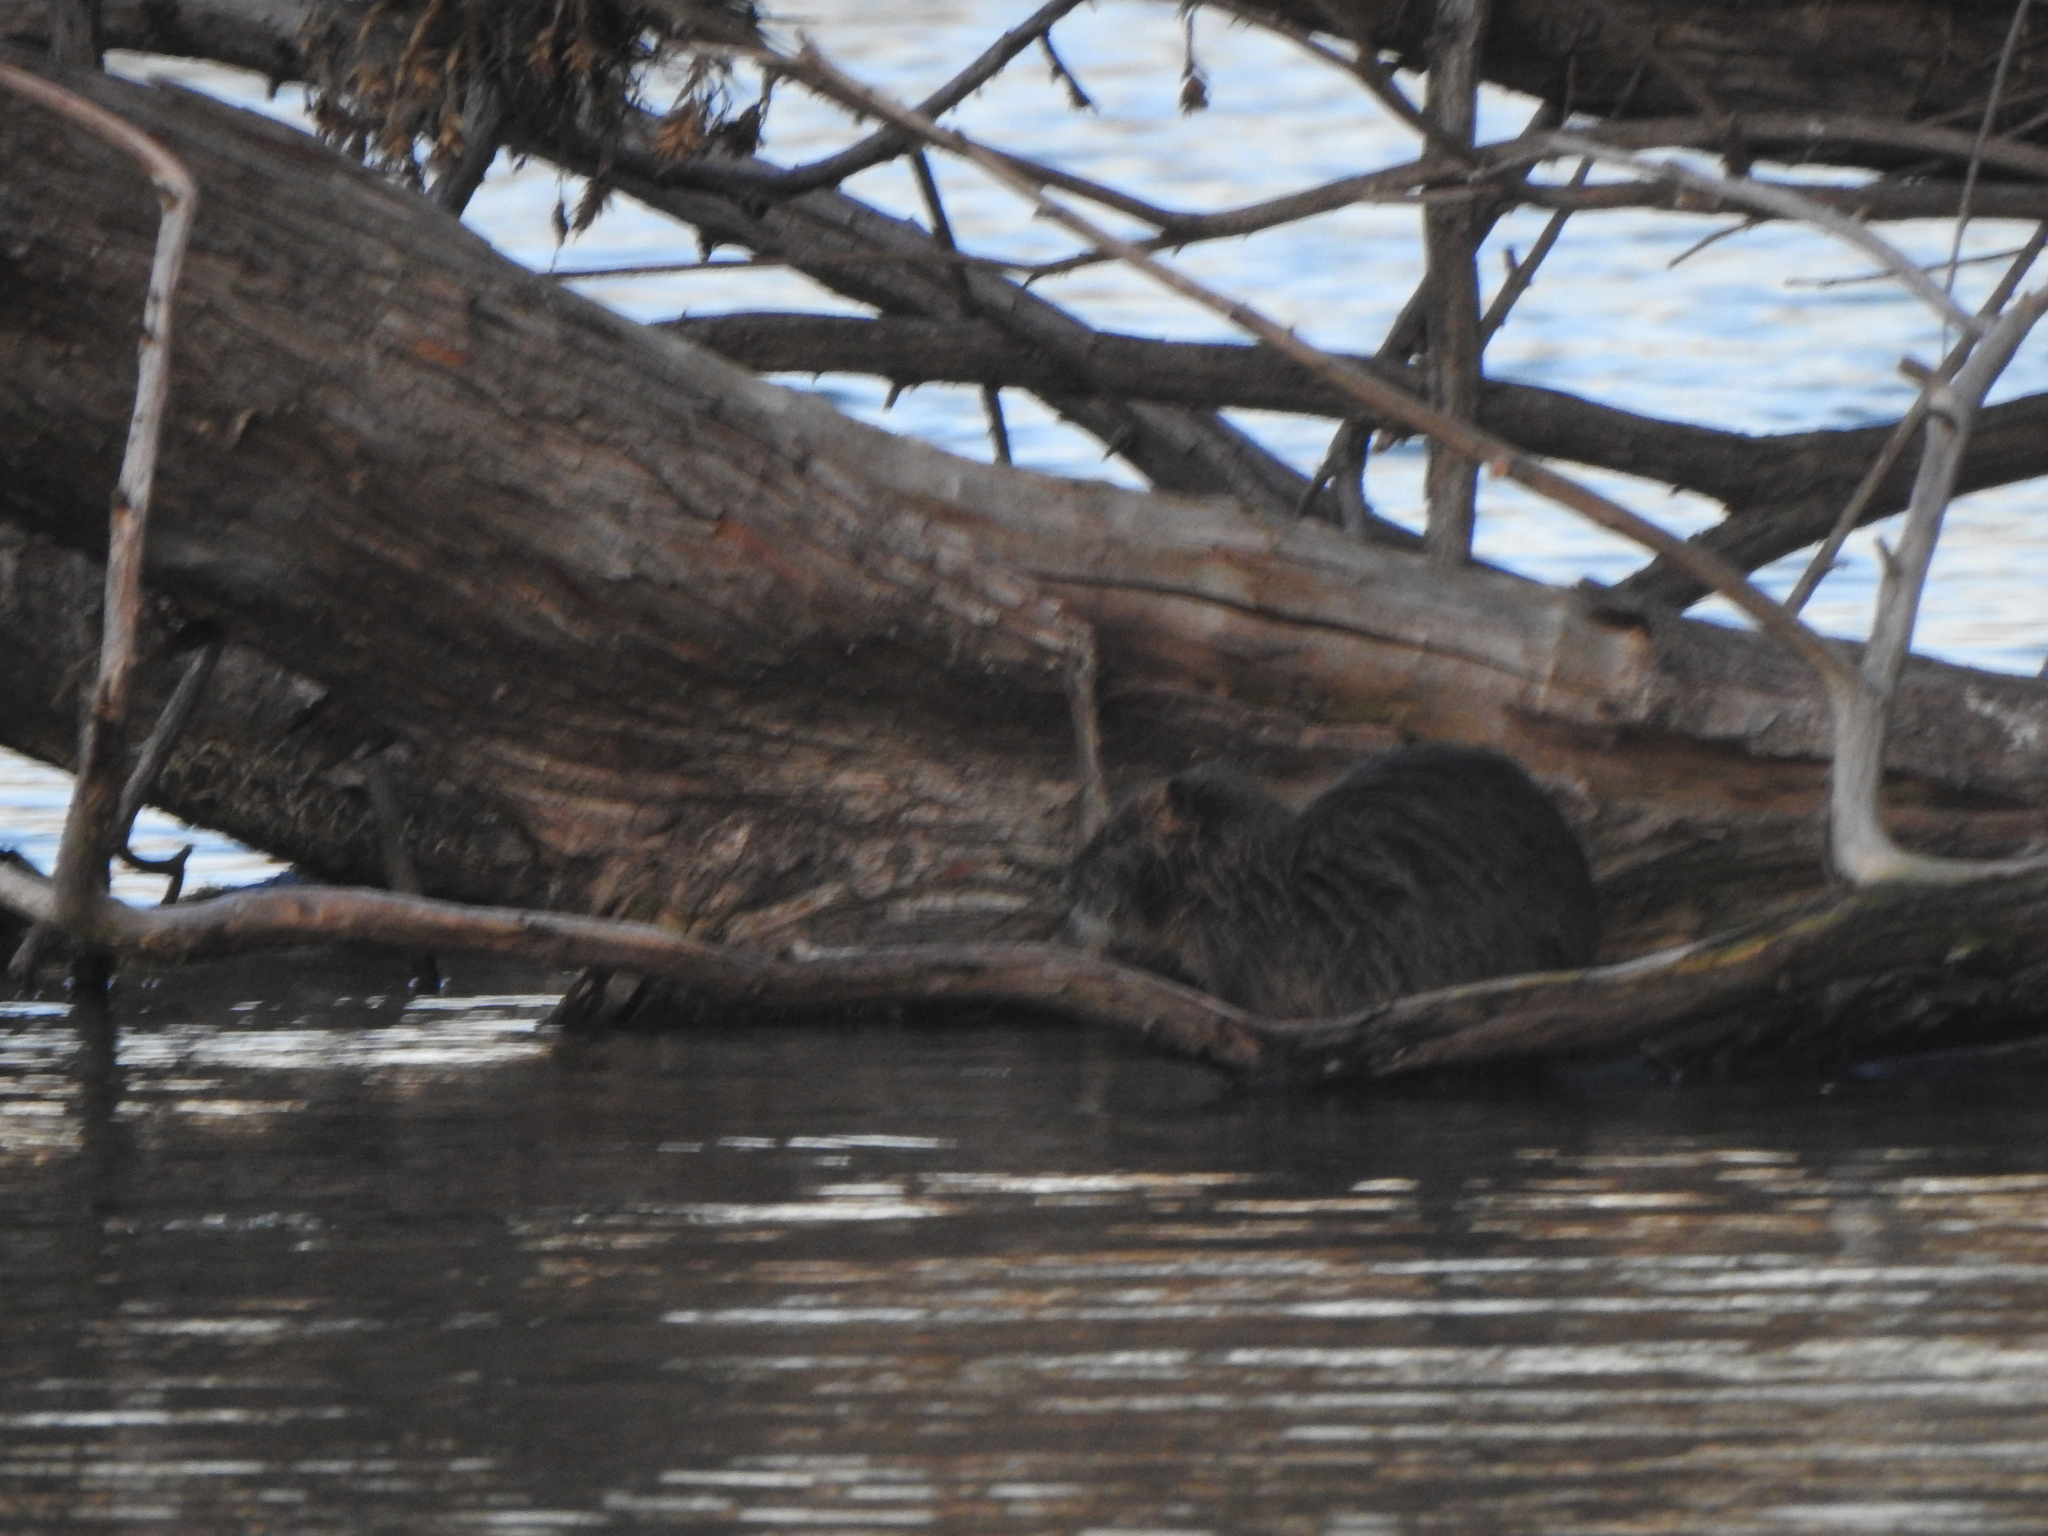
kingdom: Animalia
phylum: Chordata
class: Mammalia
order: Rodentia
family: Myocastoridae
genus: Myocastor
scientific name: Myocastor coypus
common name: Coypu
